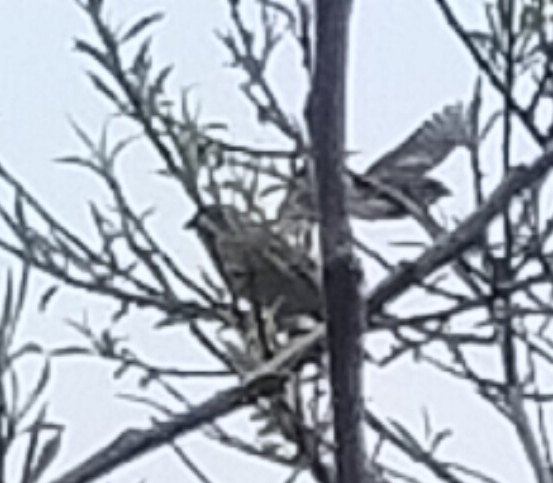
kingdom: Animalia
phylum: Chordata
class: Aves
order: Passeriformes
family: Passeridae
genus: Passer
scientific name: Passer domesticus
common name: House sparrow
